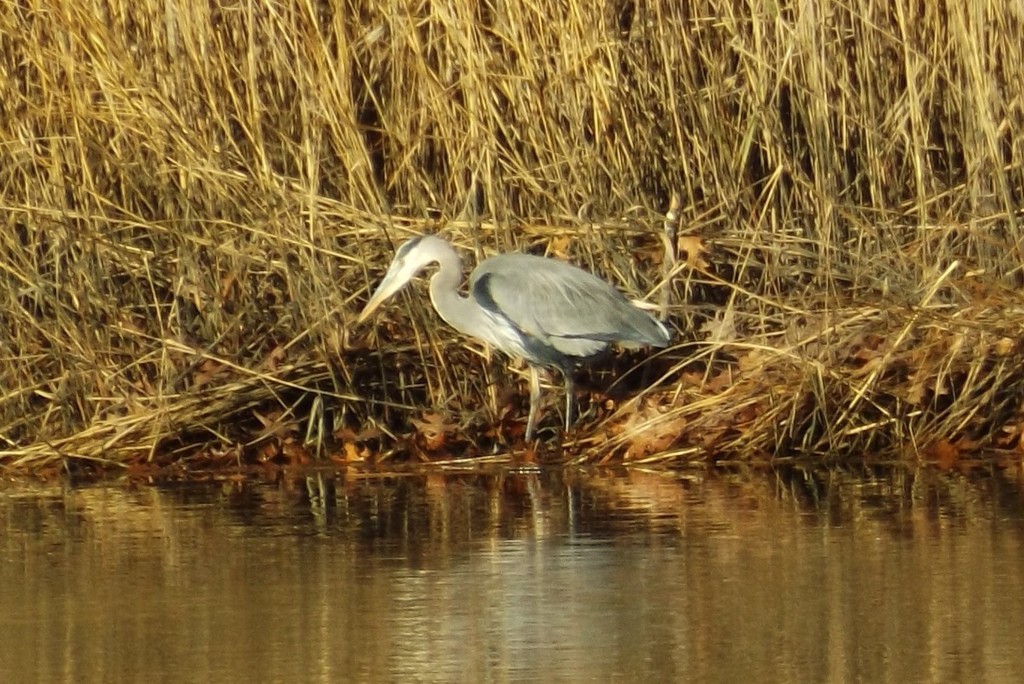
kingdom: Animalia
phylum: Chordata
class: Aves
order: Pelecaniformes
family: Ardeidae
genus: Ardea
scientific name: Ardea herodias
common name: Great blue heron
